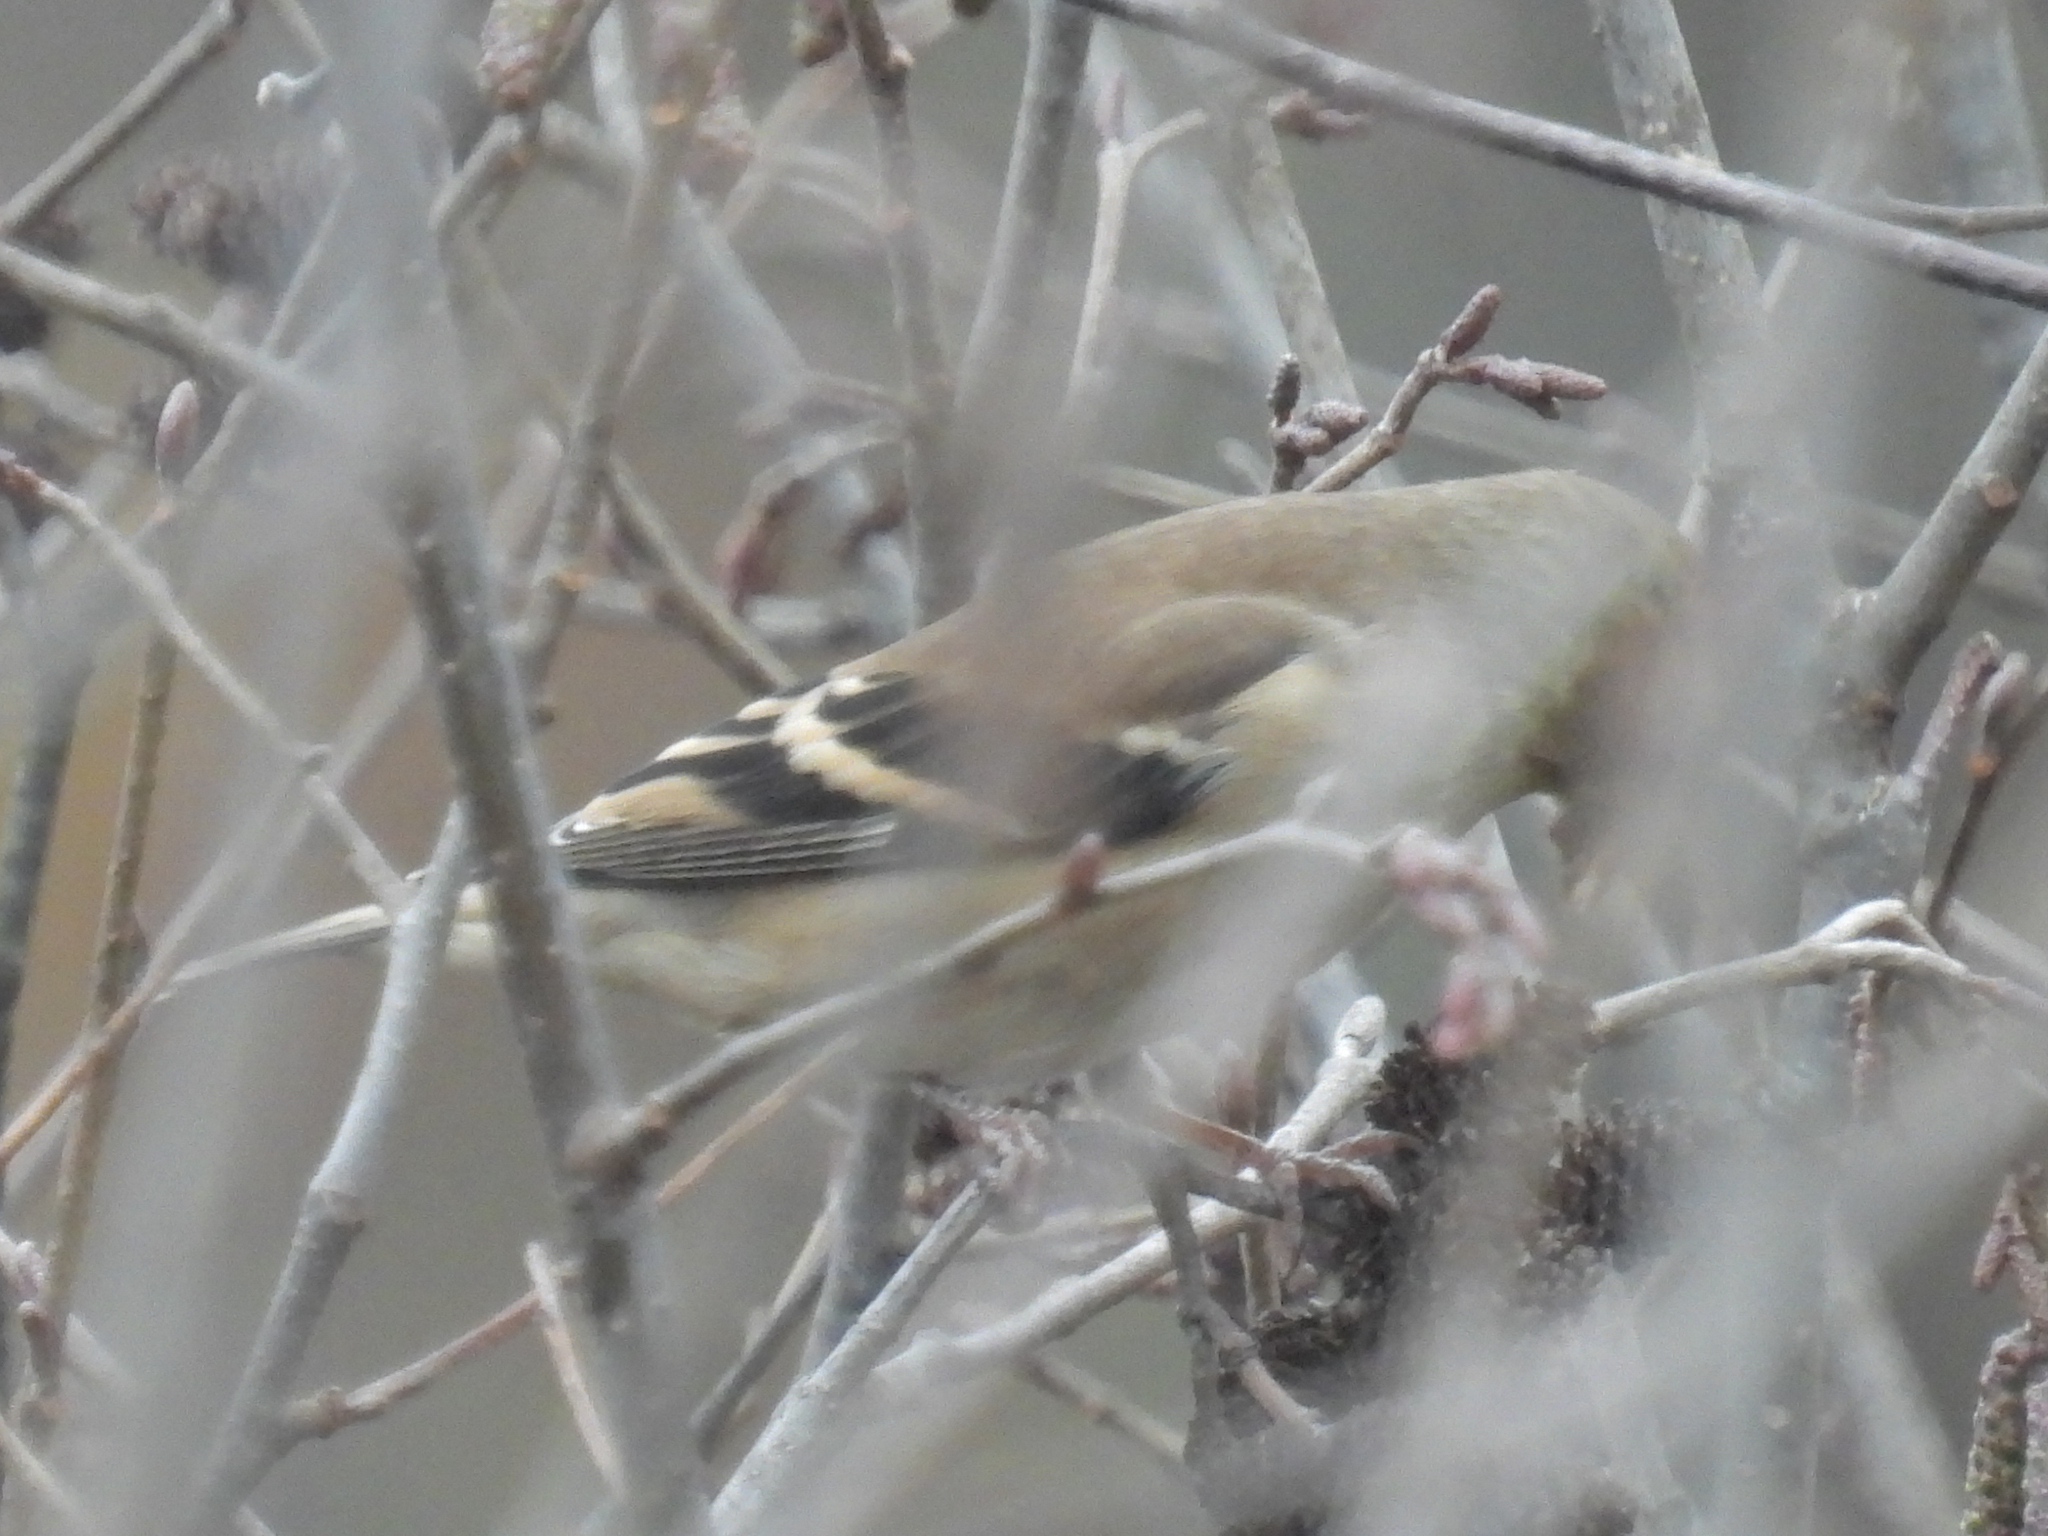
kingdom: Animalia
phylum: Chordata
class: Aves
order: Passeriformes
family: Fringillidae
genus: Spinus
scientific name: Spinus tristis
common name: American goldfinch
